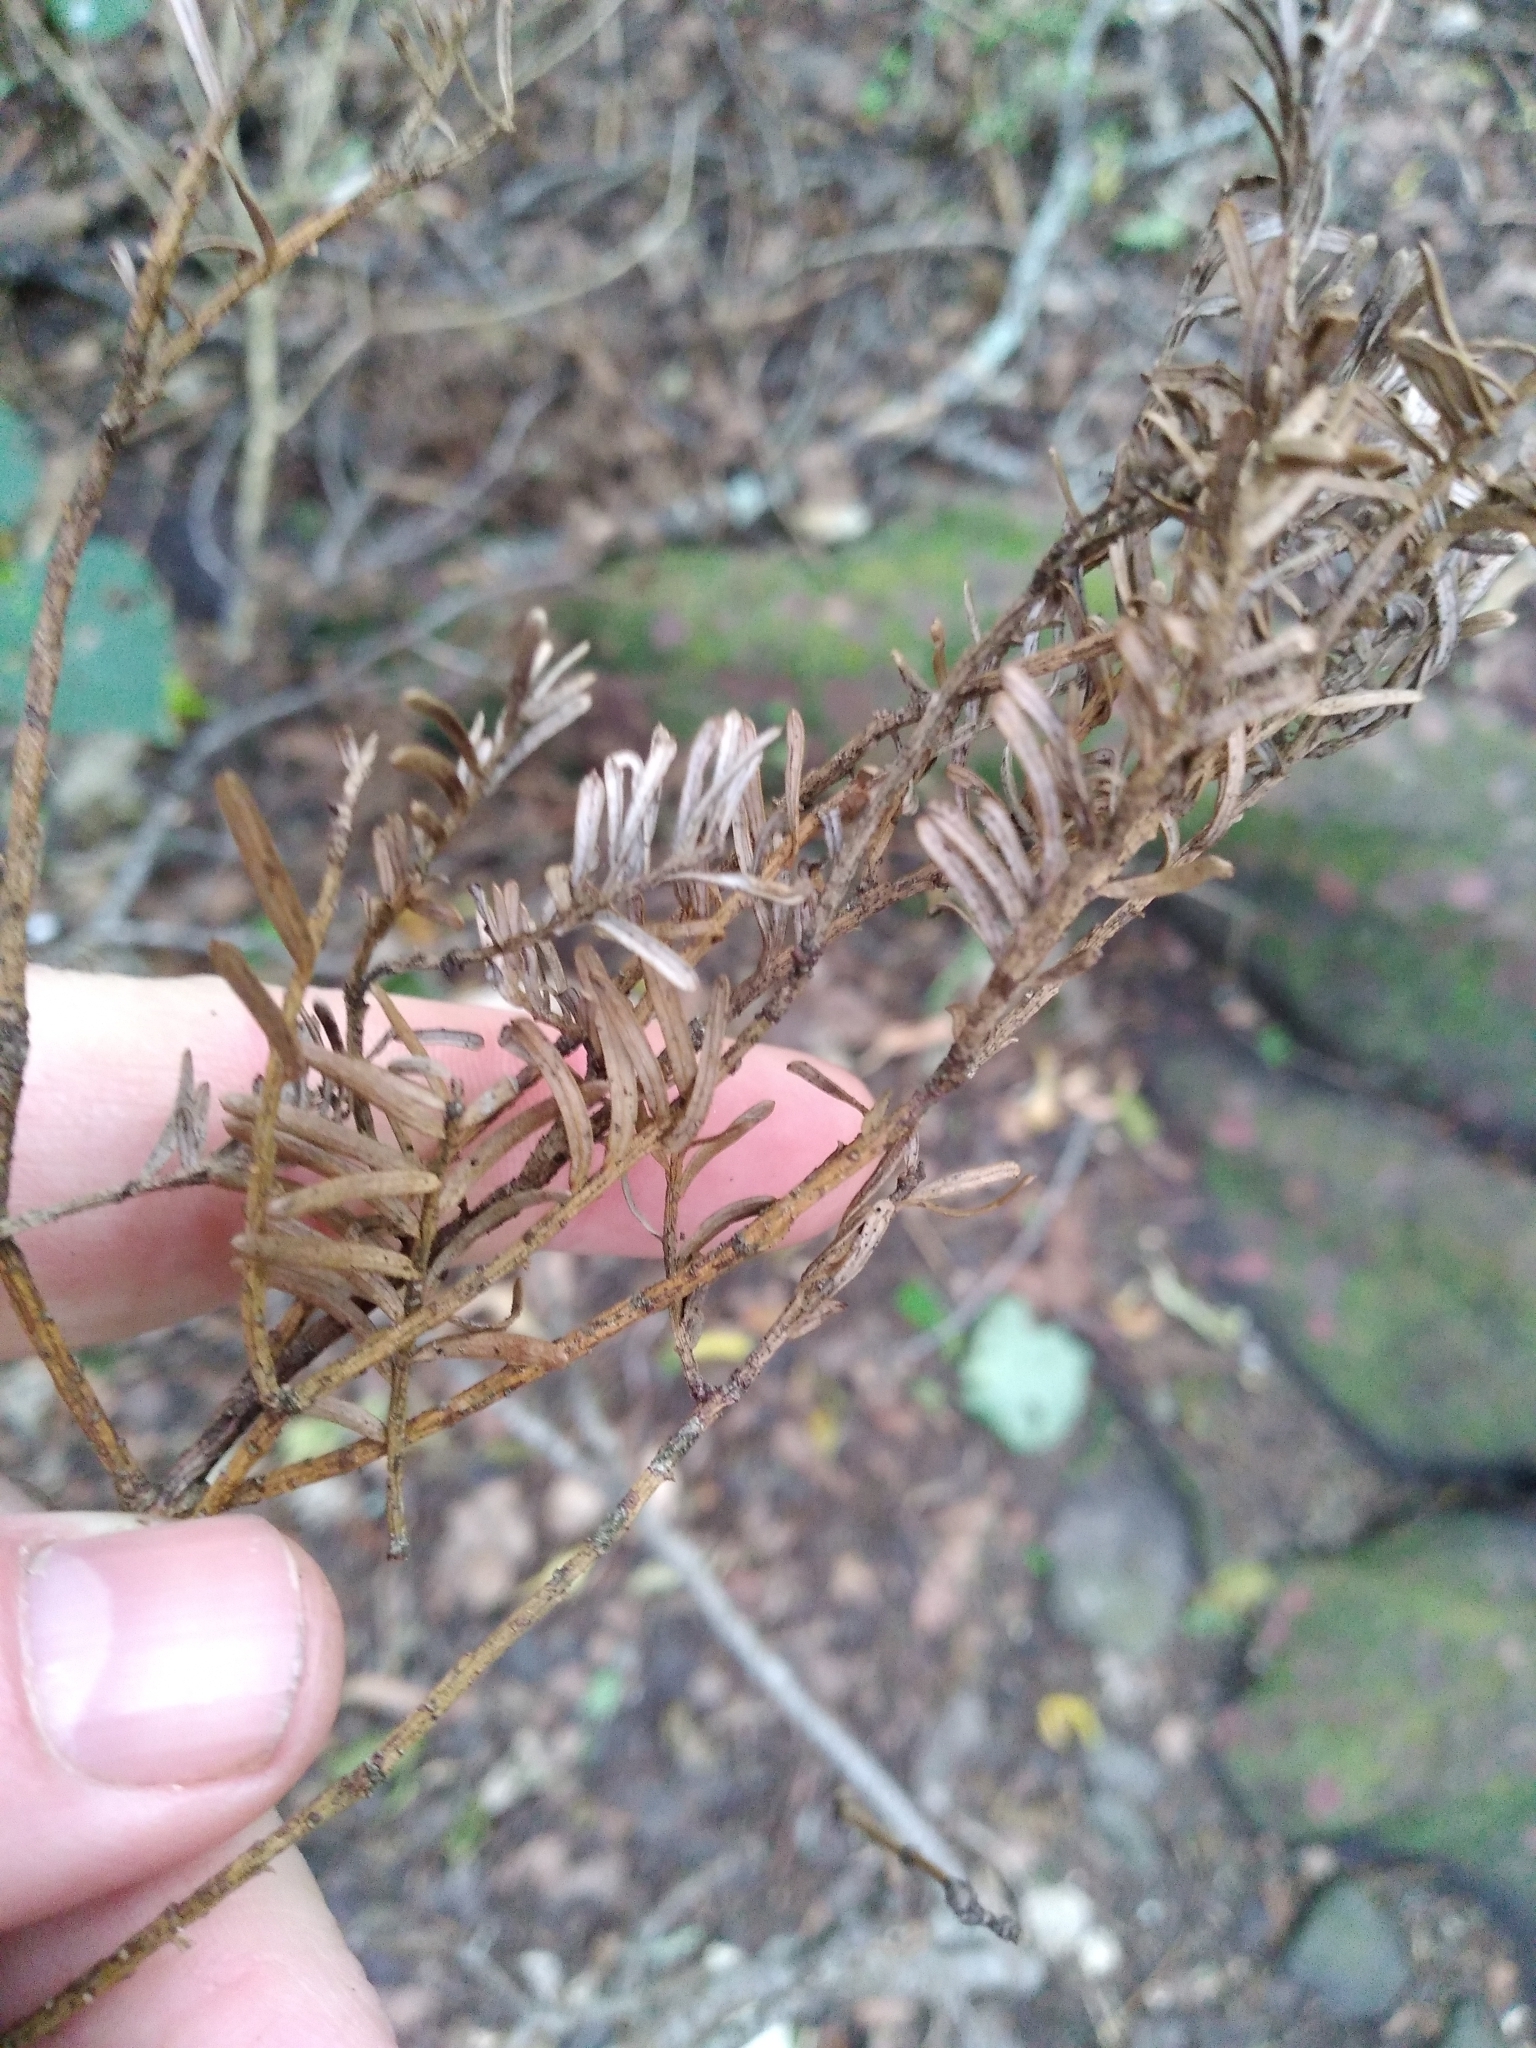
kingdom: Plantae
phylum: Tracheophyta
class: Pinopsida
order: Pinales
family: Podocarpaceae
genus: Prumnopitys
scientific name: Prumnopitys taxifolia
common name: Matai
